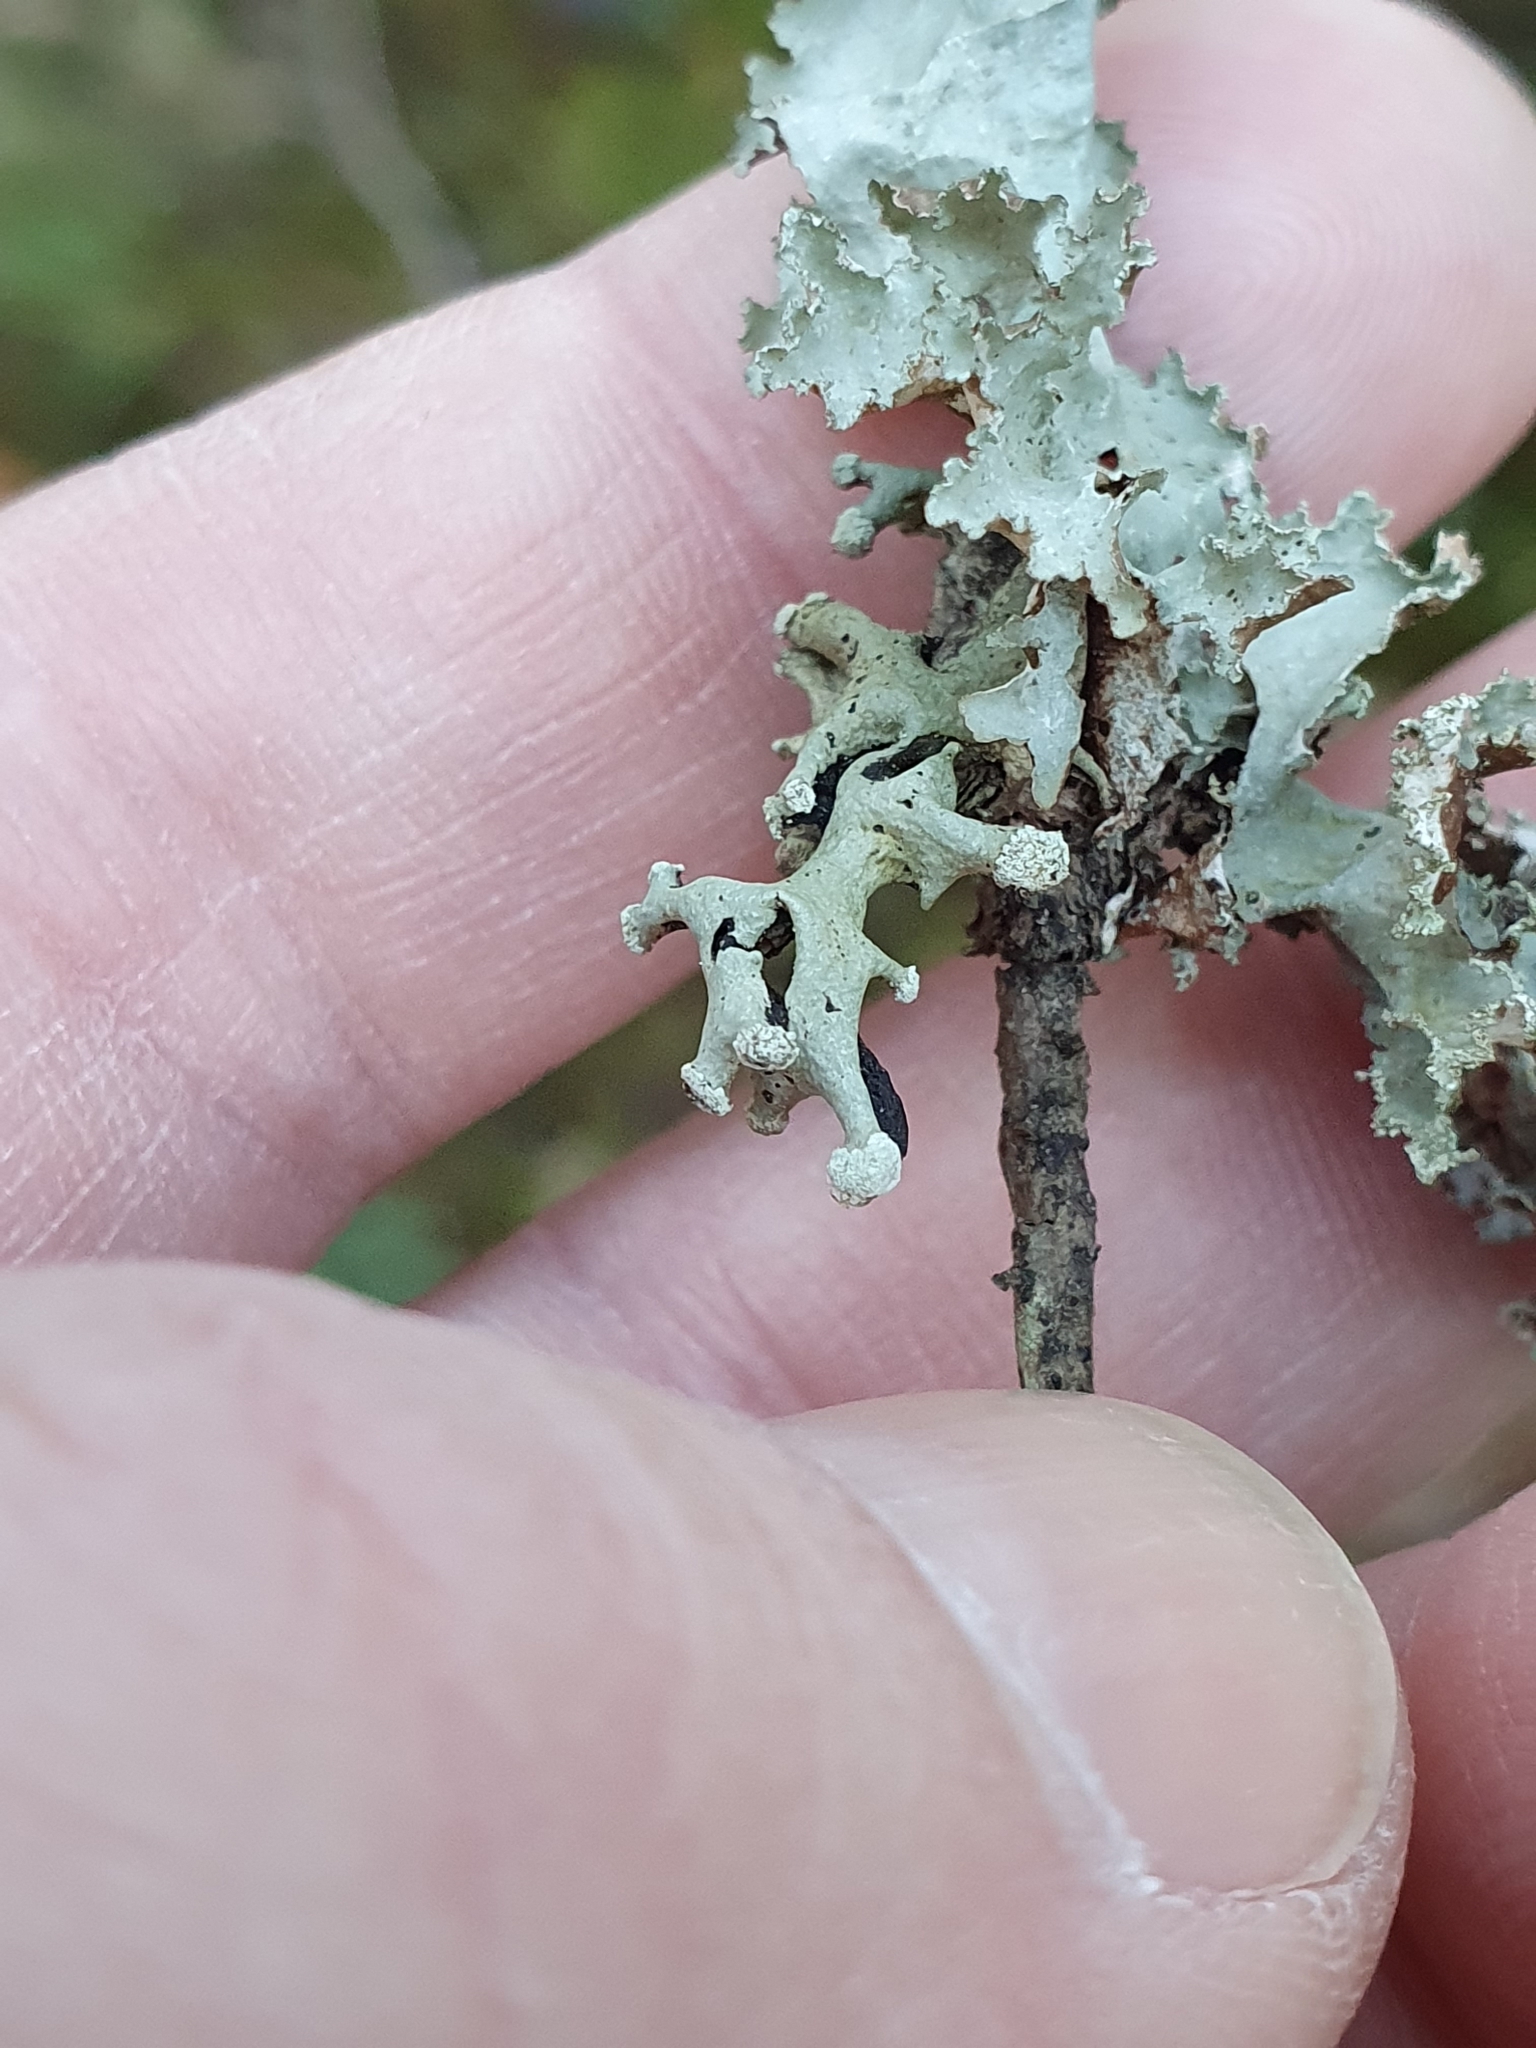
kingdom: Fungi
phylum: Ascomycota
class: Lecanoromycetes
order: Lecanorales
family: Parmeliaceae
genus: Hypogymnia
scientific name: Hypogymnia tubulosa
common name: Powder-headed tube lichen
